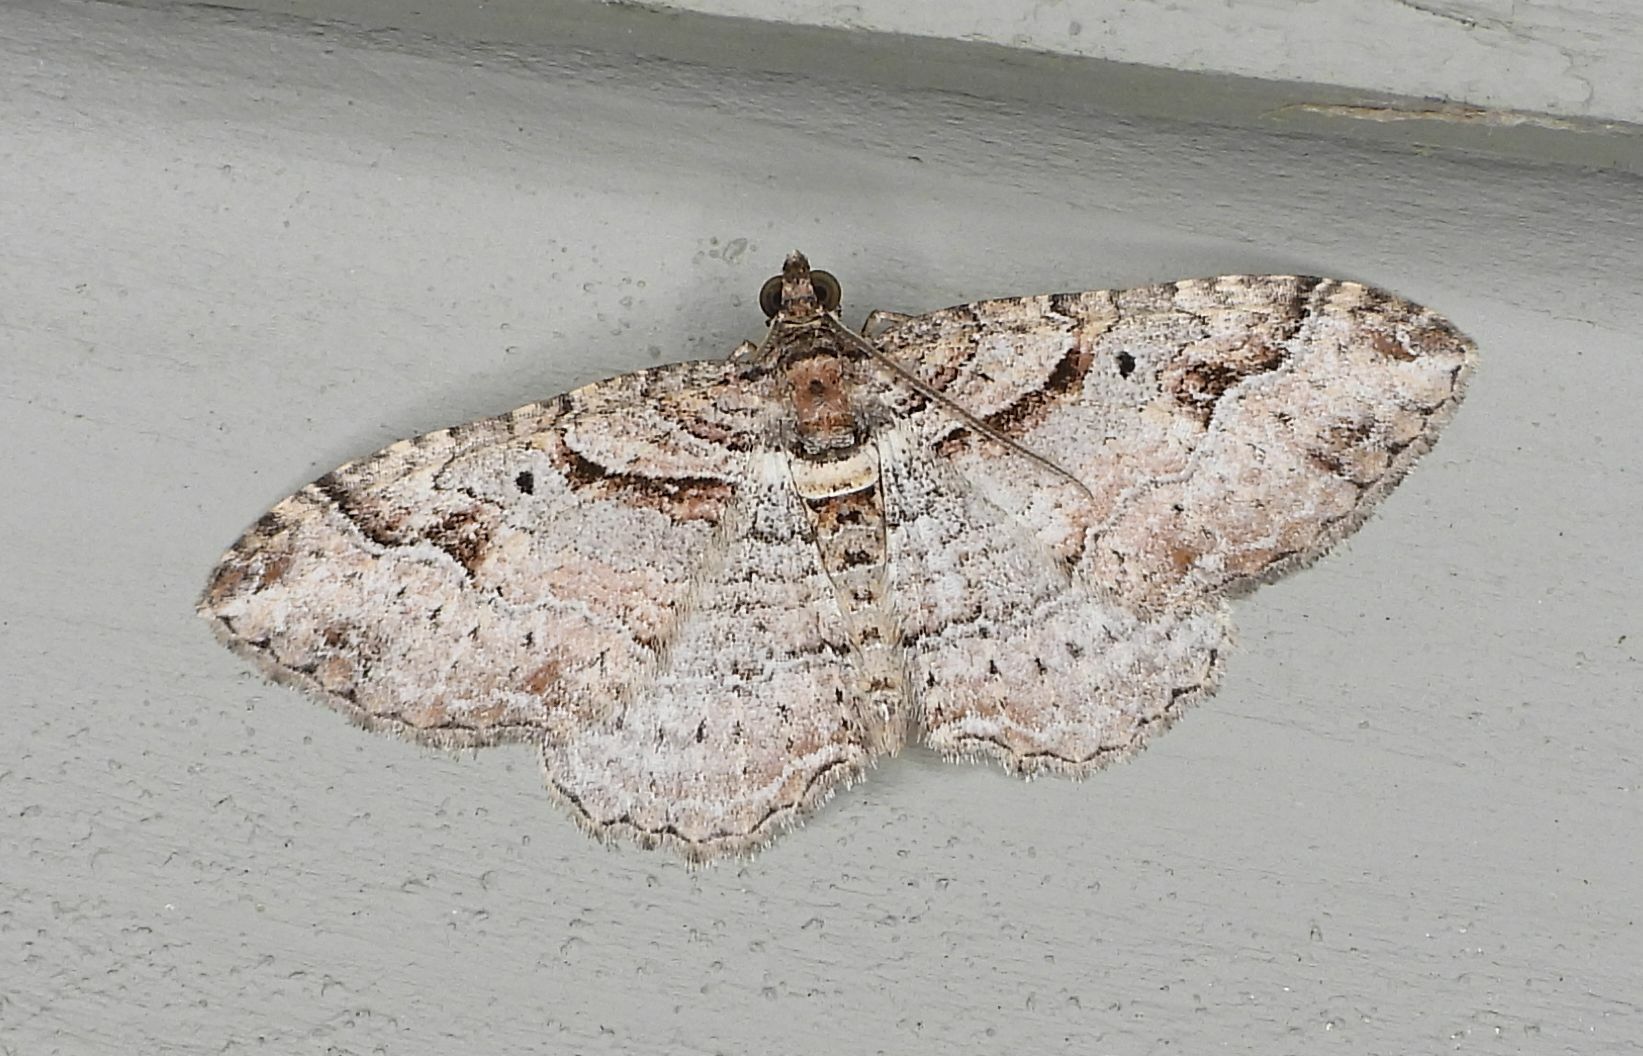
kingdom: Animalia
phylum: Arthropoda
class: Insecta
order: Lepidoptera
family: Geometridae
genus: Costaconvexa
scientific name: Costaconvexa centrostrigaria
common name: Bent-line carpet
